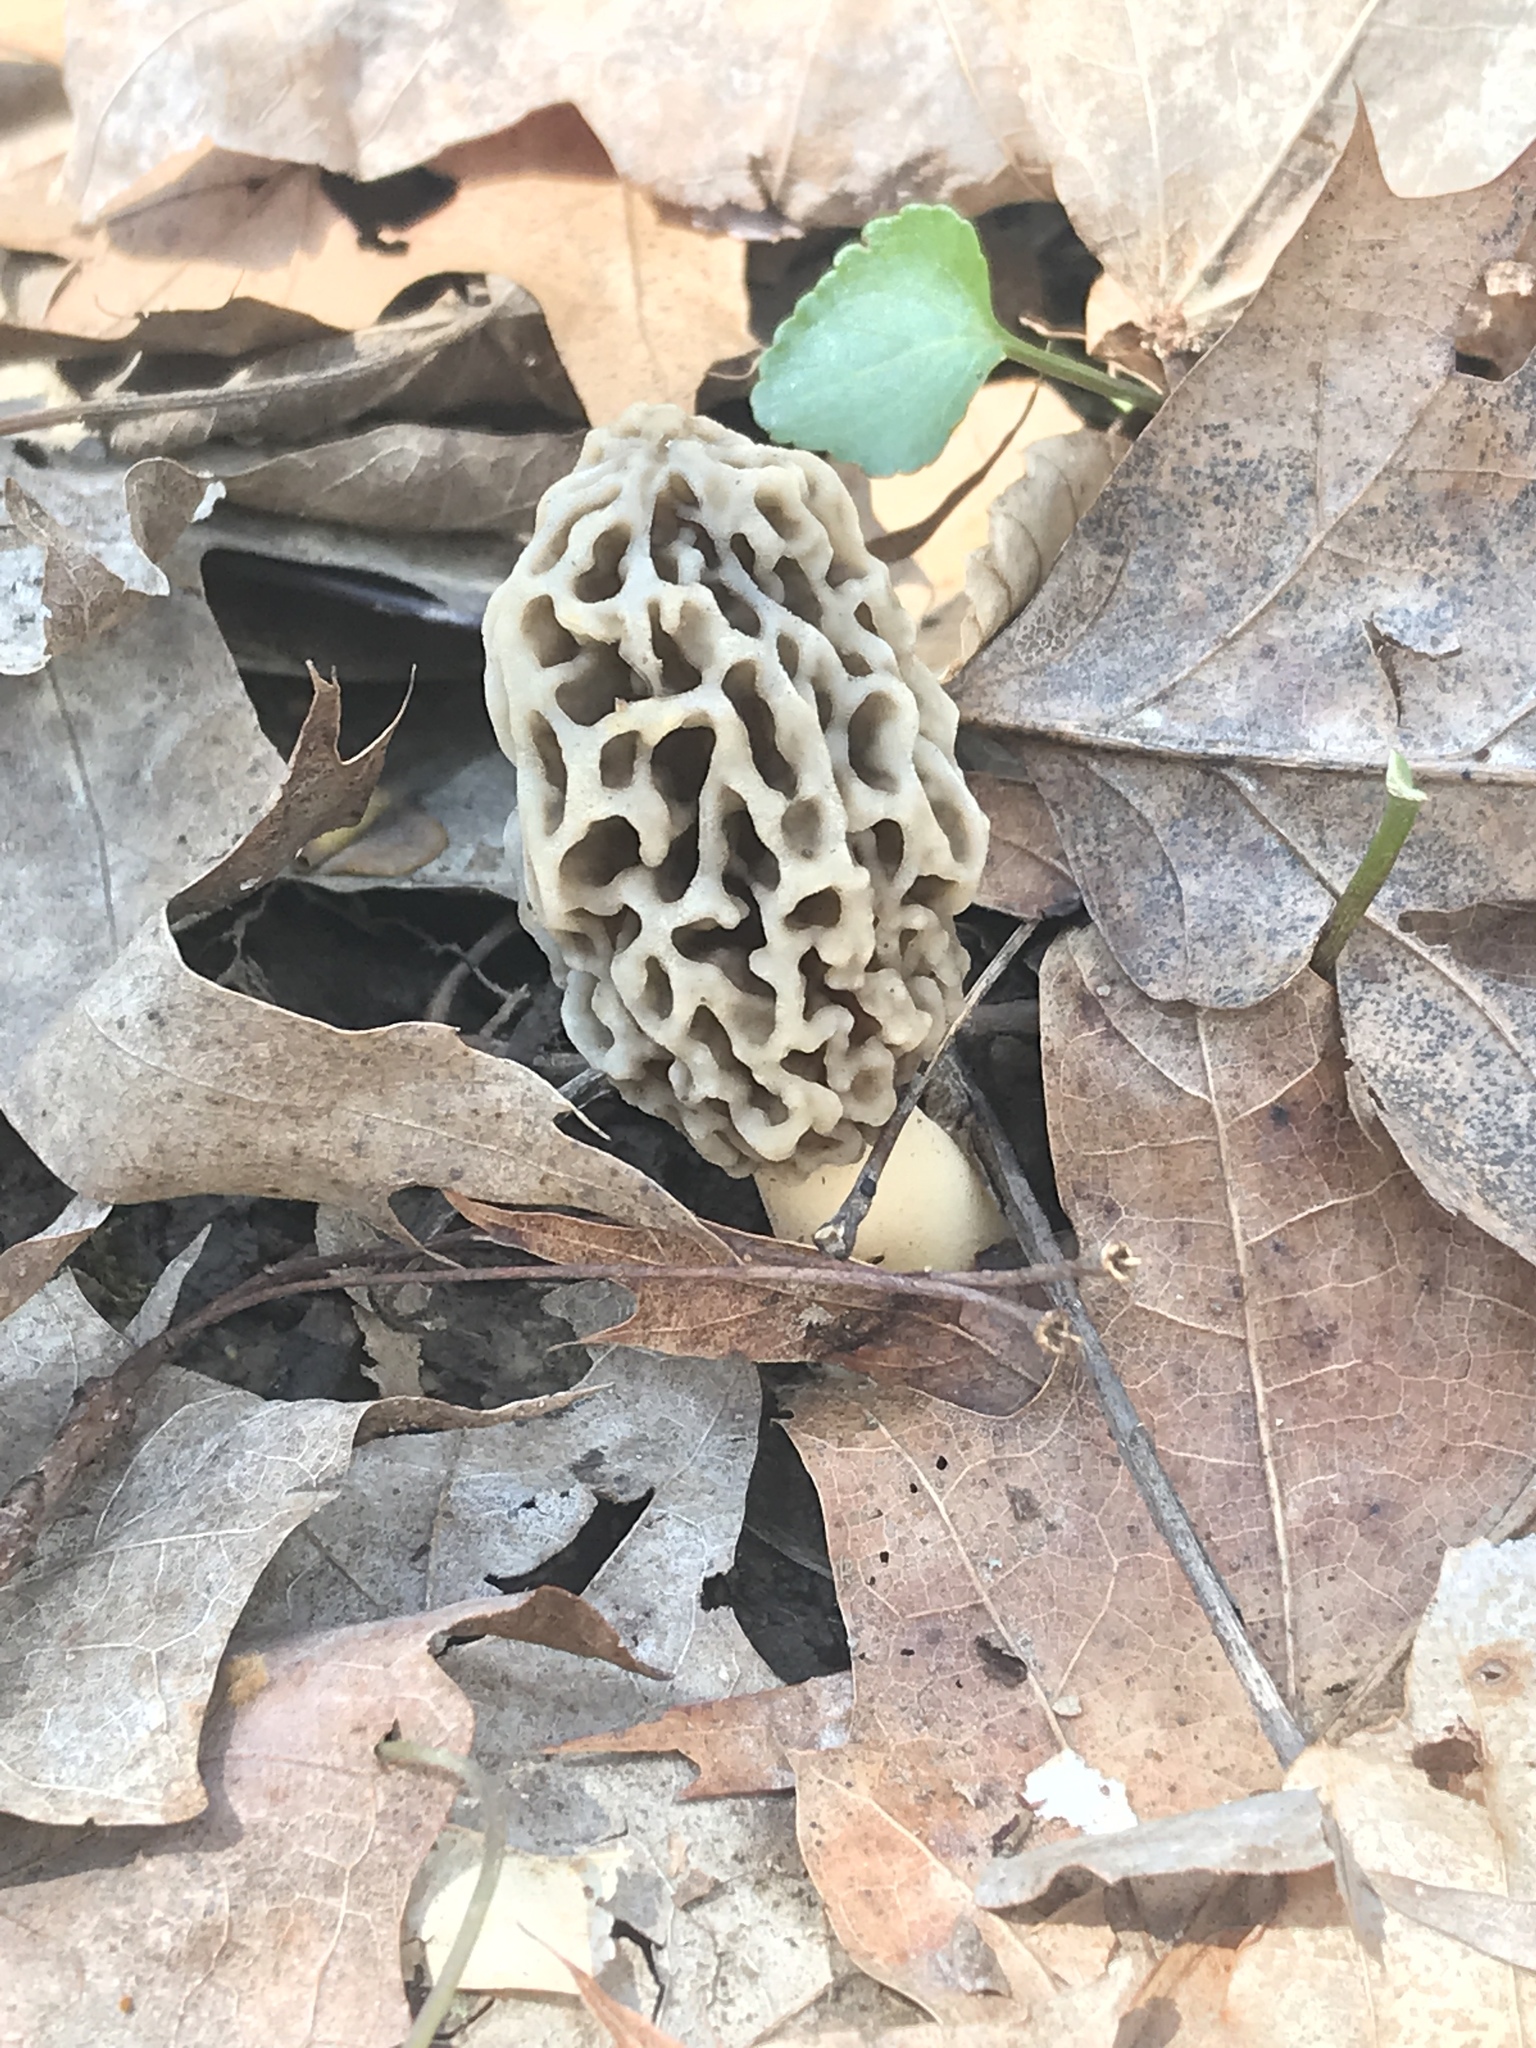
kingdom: Fungi
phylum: Ascomycota
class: Pezizomycetes
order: Pezizales
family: Morchellaceae
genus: Morchella
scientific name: Morchella americana
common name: White morel
